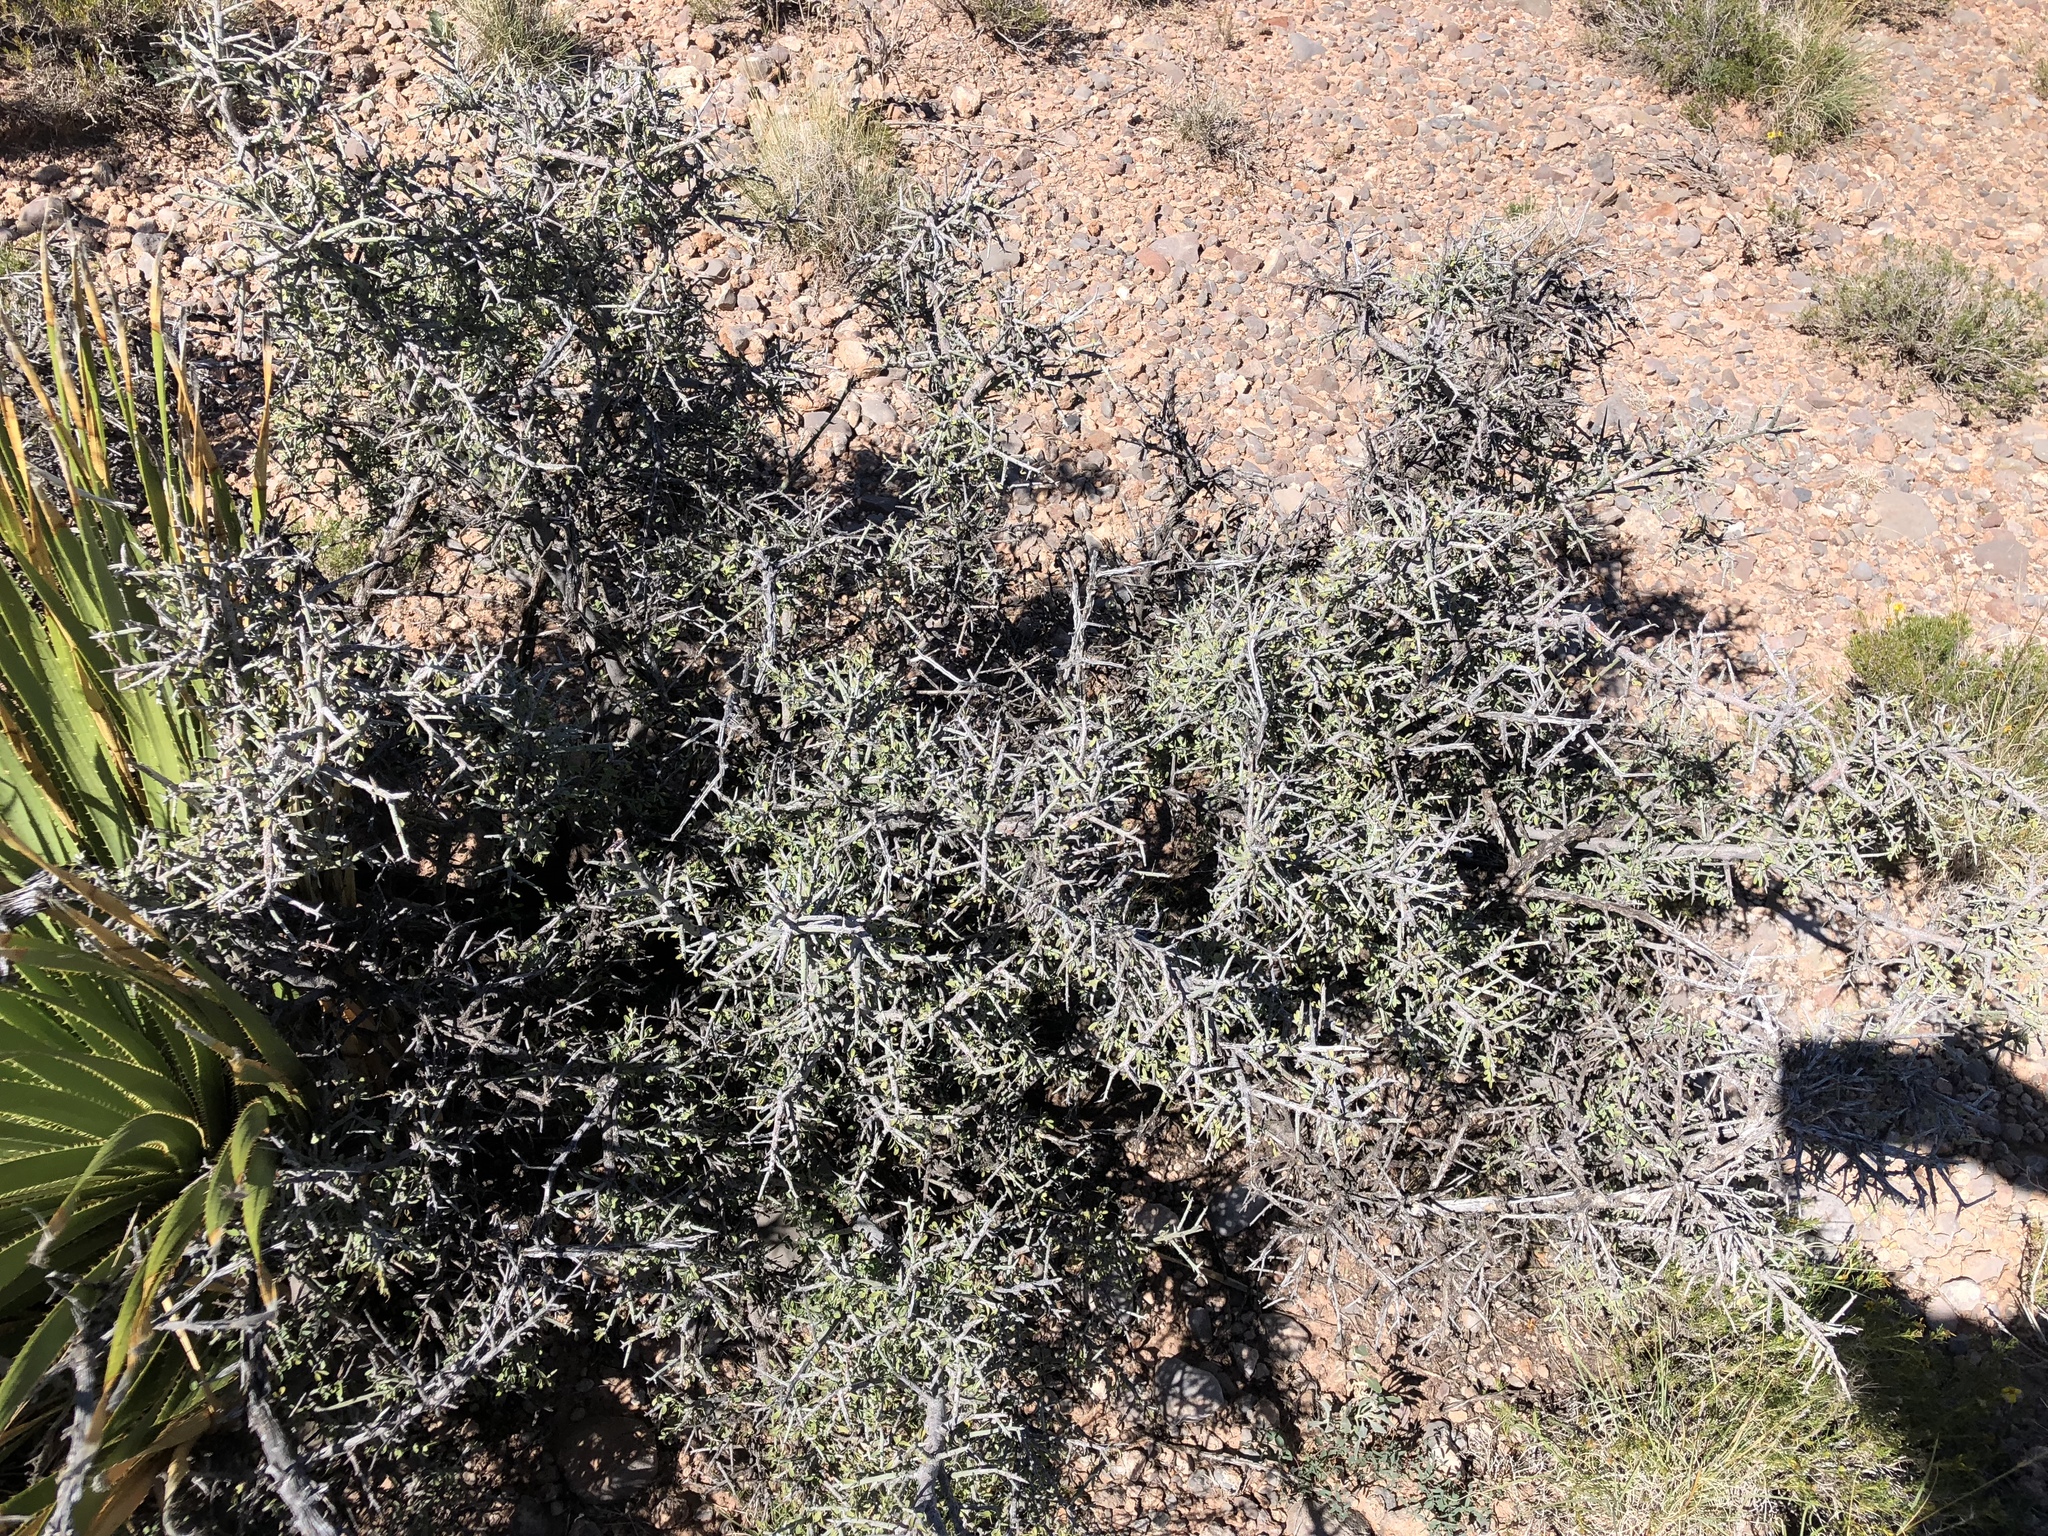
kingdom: Plantae
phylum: Tracheophyta
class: Magnoliopsida
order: Rosales
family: Rhamnaceae
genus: Condalia
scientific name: Condalia warnockii
